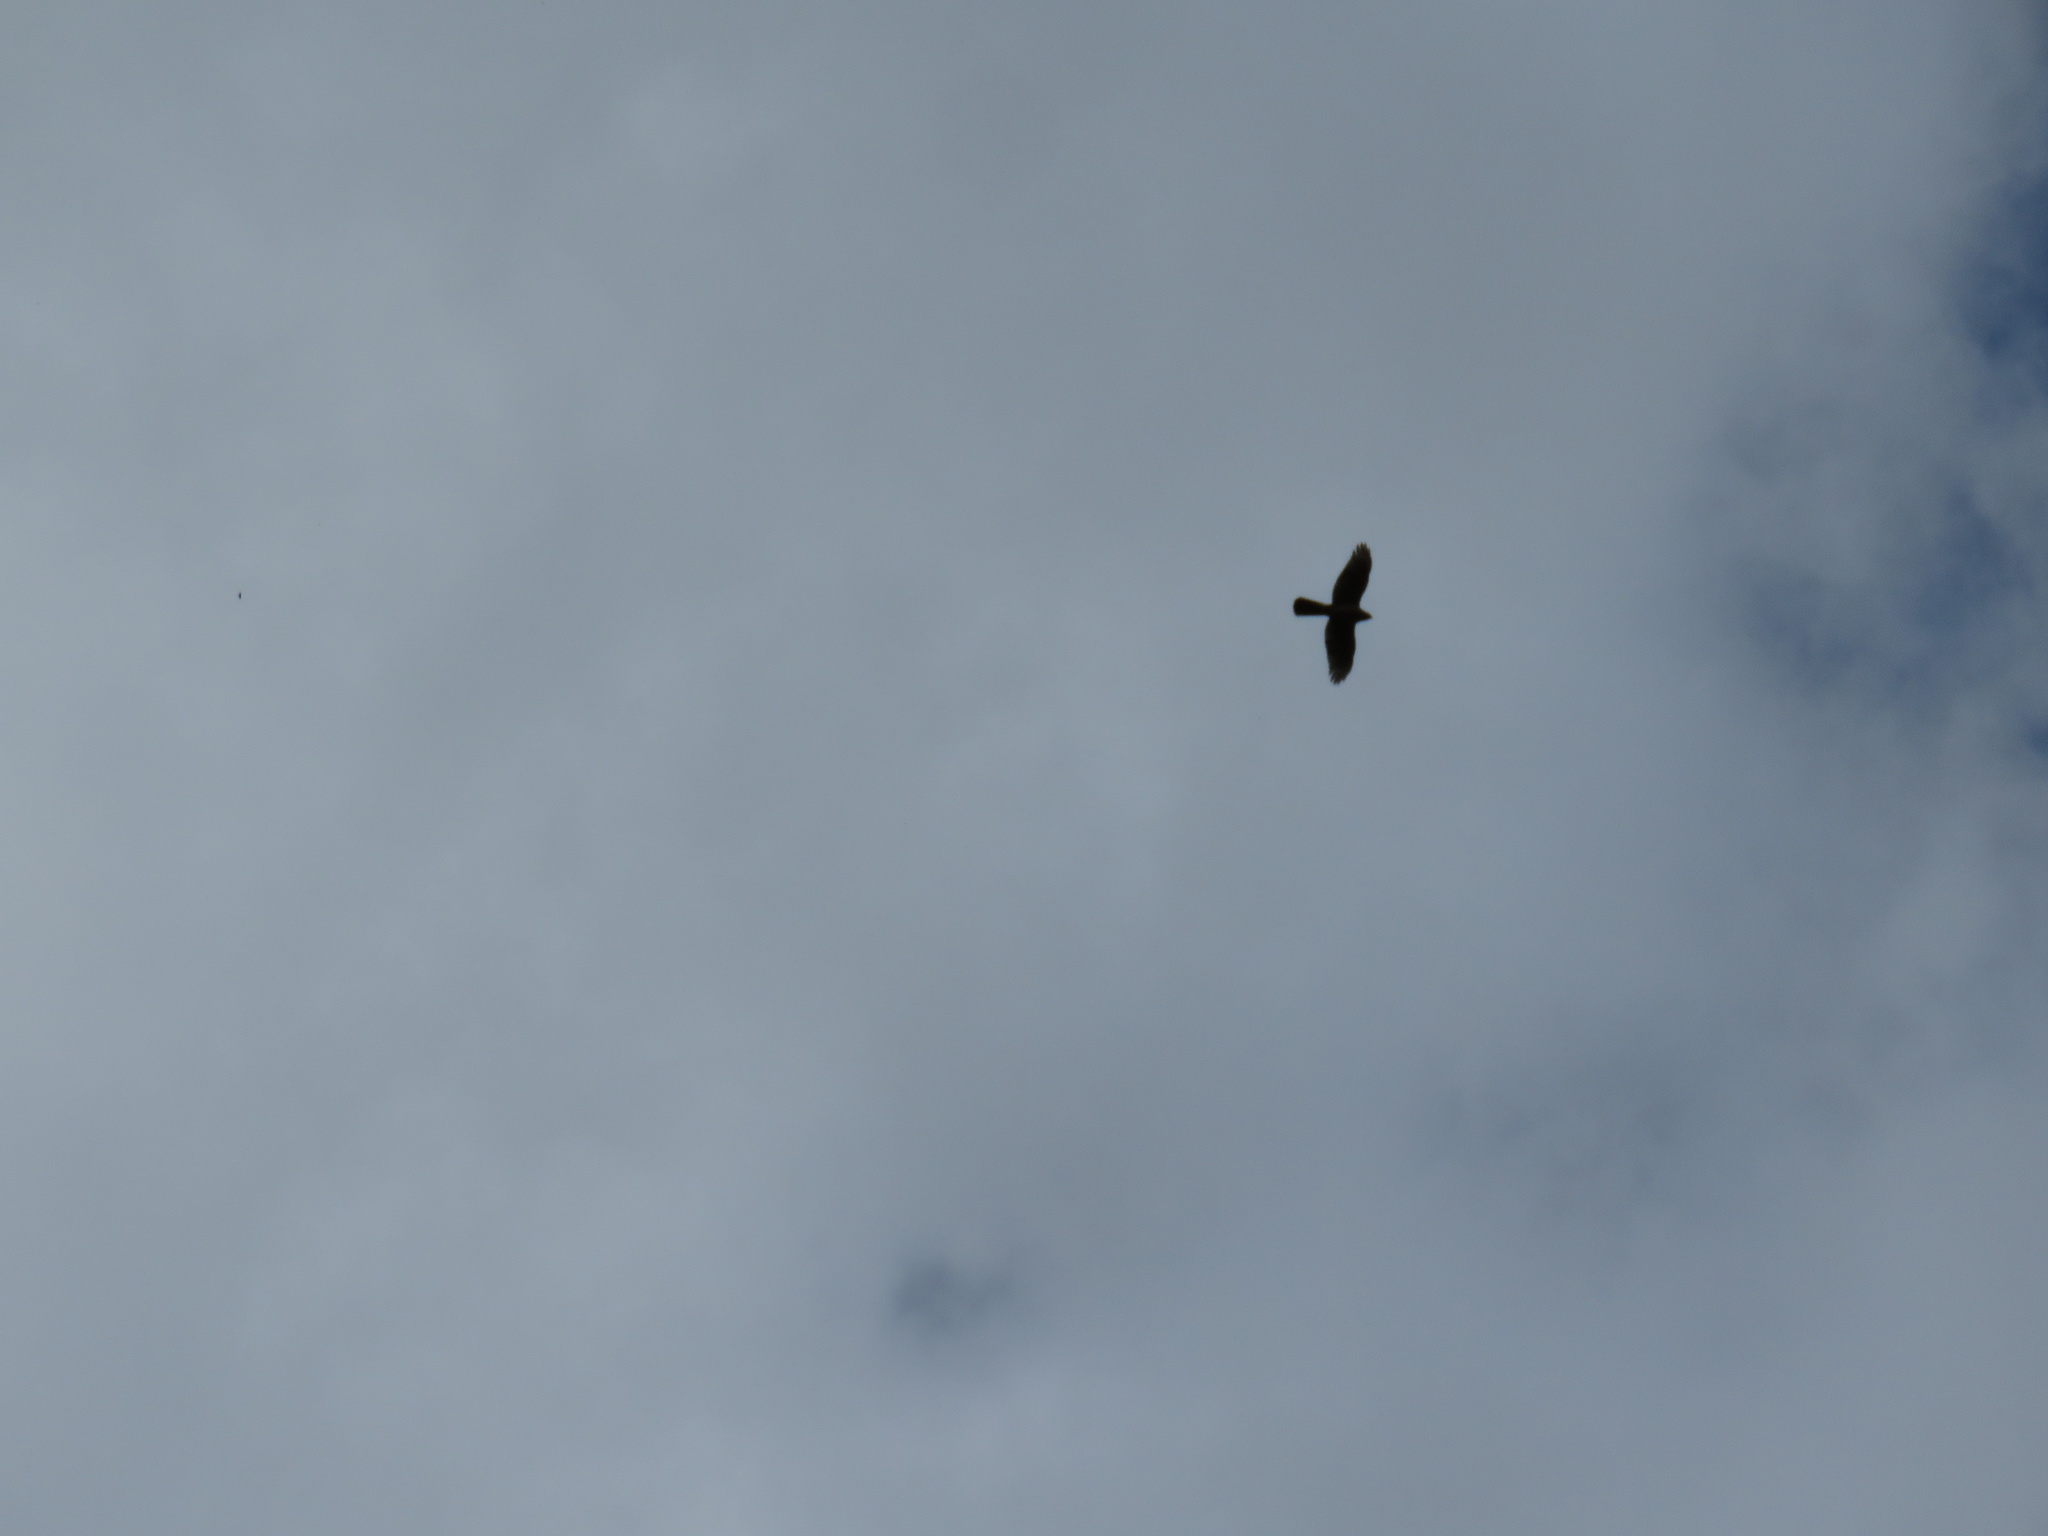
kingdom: Animalia
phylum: Chordata
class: Aves
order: Accipitriformes
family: Accipitridae
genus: Accipiter
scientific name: Accipiter cooperii
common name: Cooper's hawk
